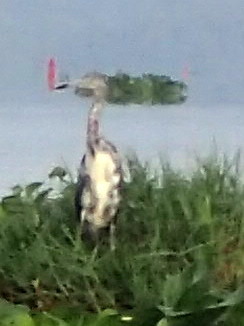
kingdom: Animalia
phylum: Chordata
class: Aves
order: Pelecaniformes
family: Ardeidae
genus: Egretta
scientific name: Egretta caerulea
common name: Little blue heron
